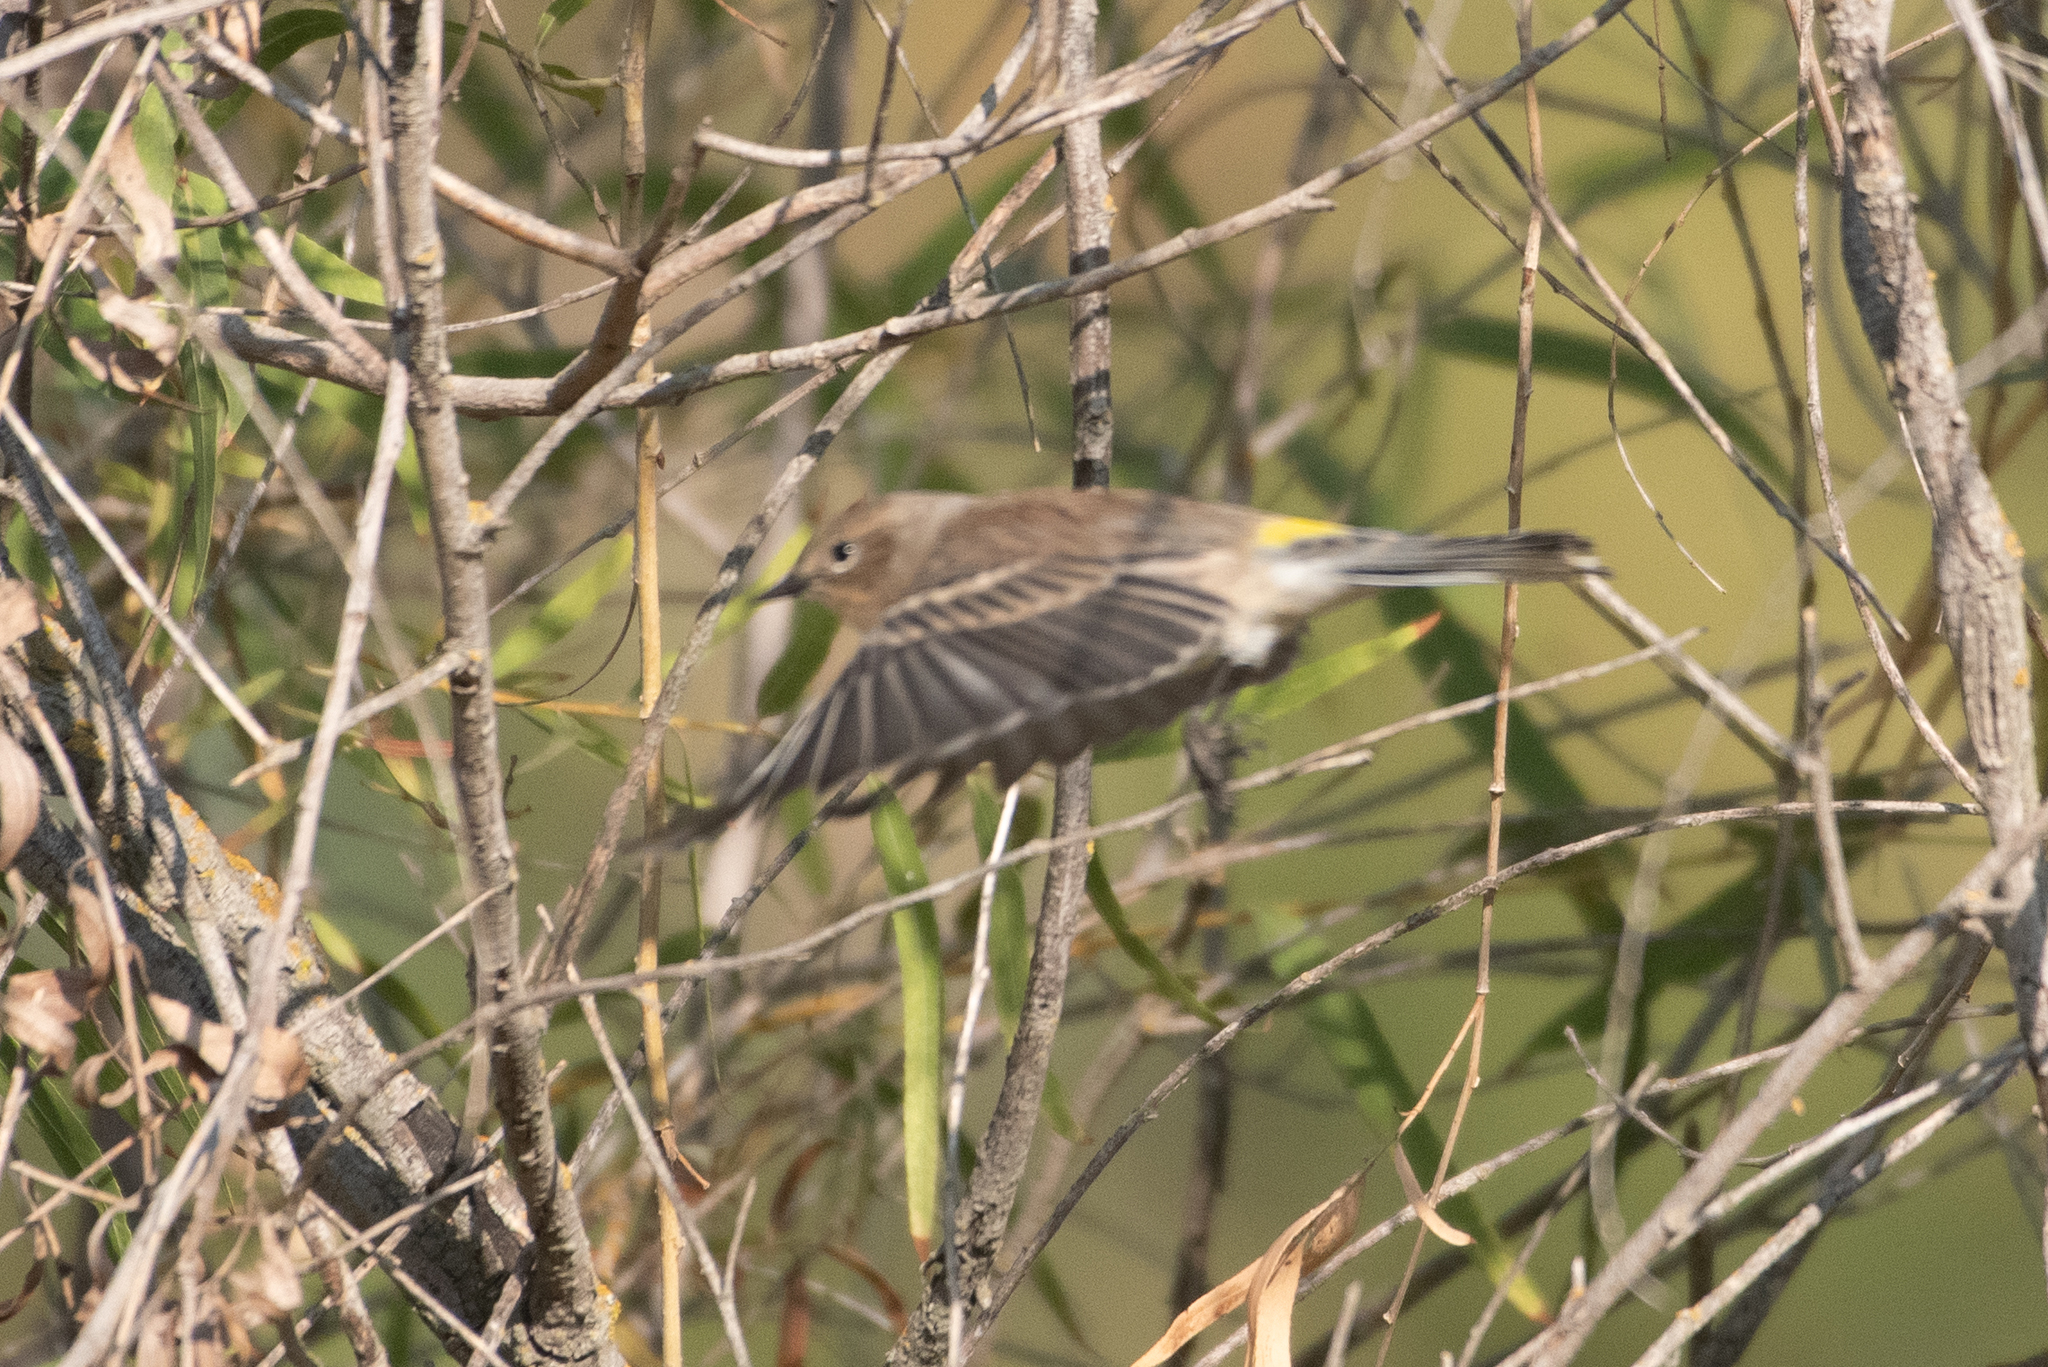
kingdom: Animalia
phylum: Chordata
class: Aves
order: Passeriformes
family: Parulidae
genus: Setophaga
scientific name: Setophaga coronata
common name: Myrtle warbler
